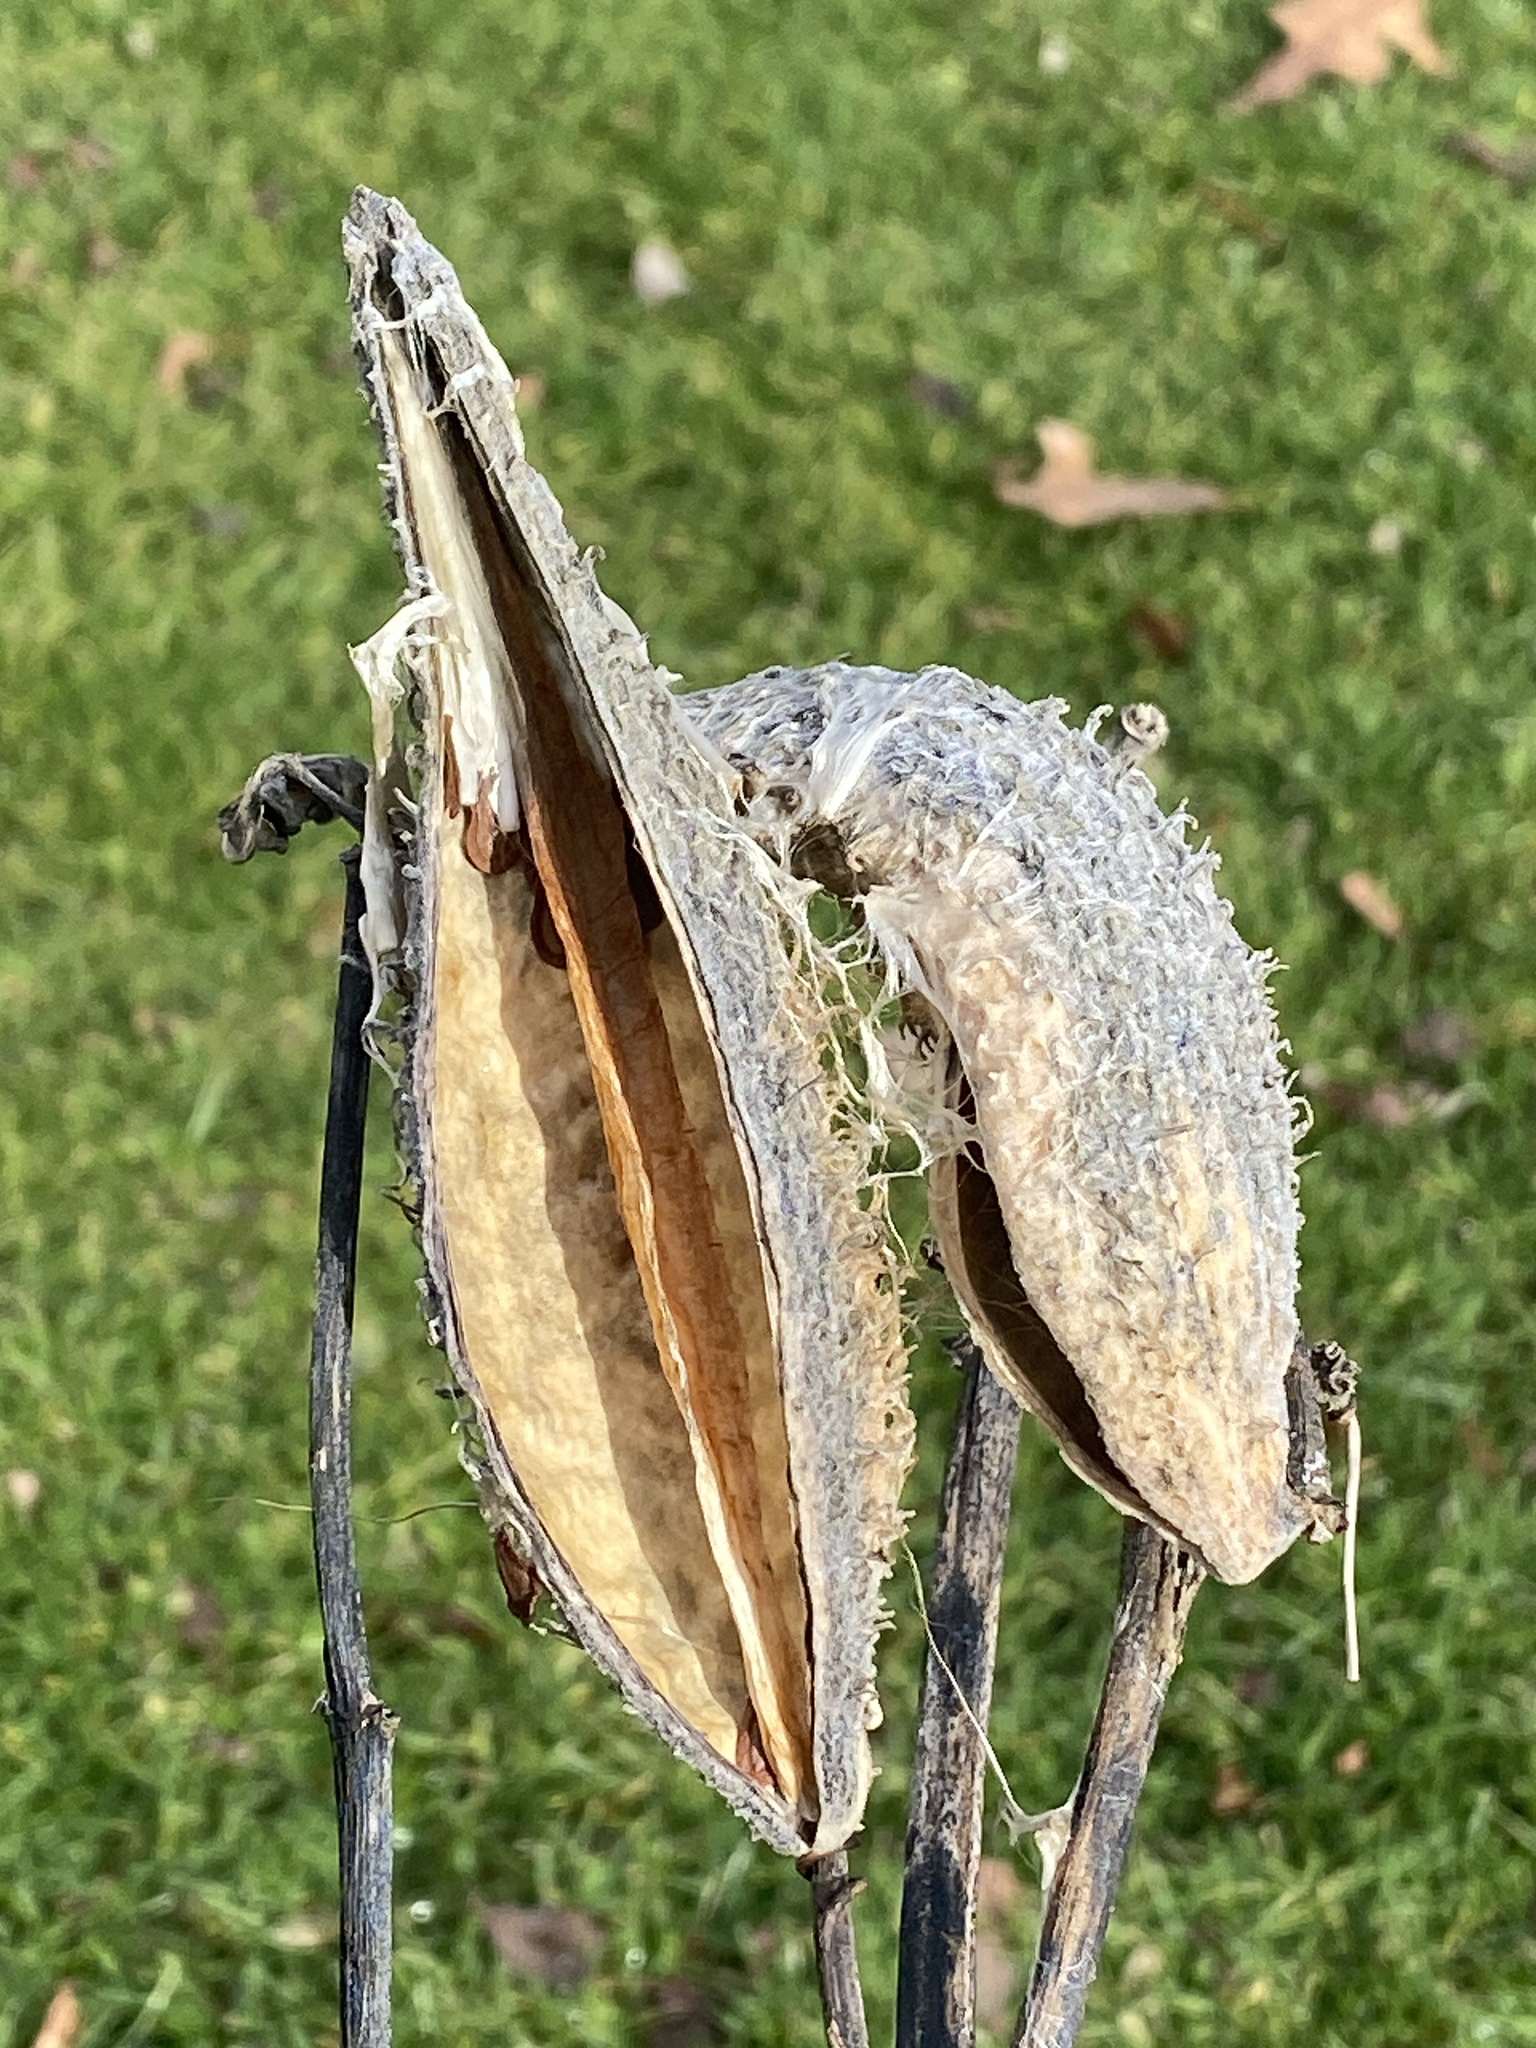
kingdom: Plantae
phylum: Tracheophyta
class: Magnoliopsida
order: Gentianales
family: Apocynaceae
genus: Asclepias
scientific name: Asclepias syriaca
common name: Common milkweed
